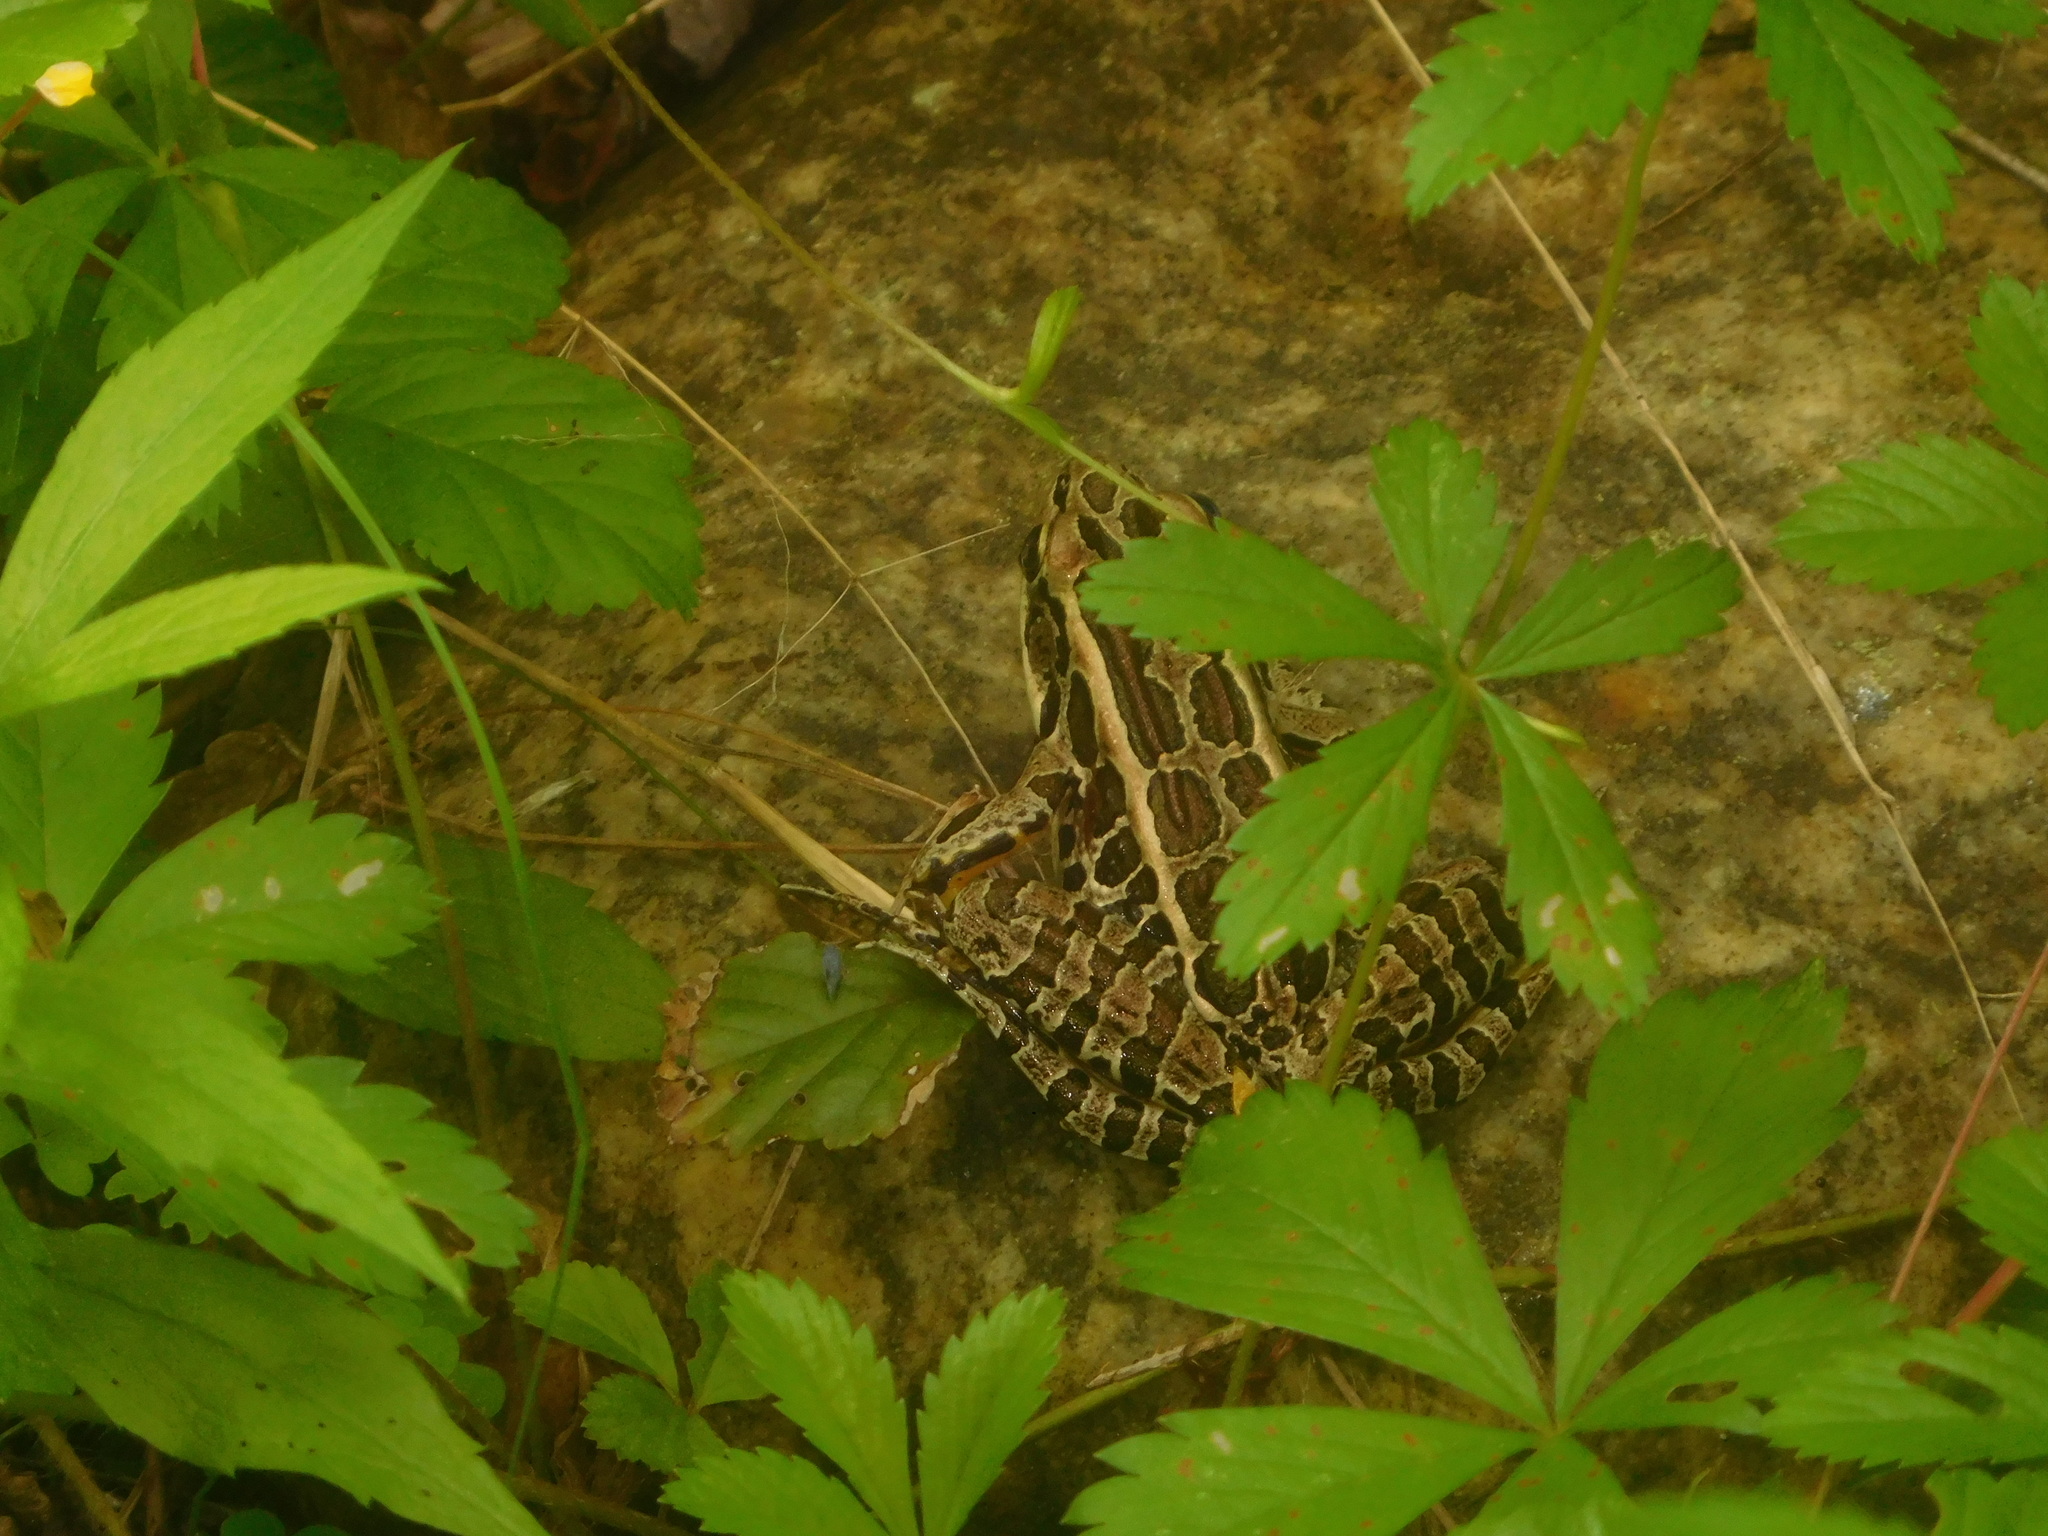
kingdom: Animalia
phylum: Chordata
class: Amphibia
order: Anura
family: Ranidae
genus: Lithobates
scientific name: Lithobates palustris
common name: Pickerel frog
